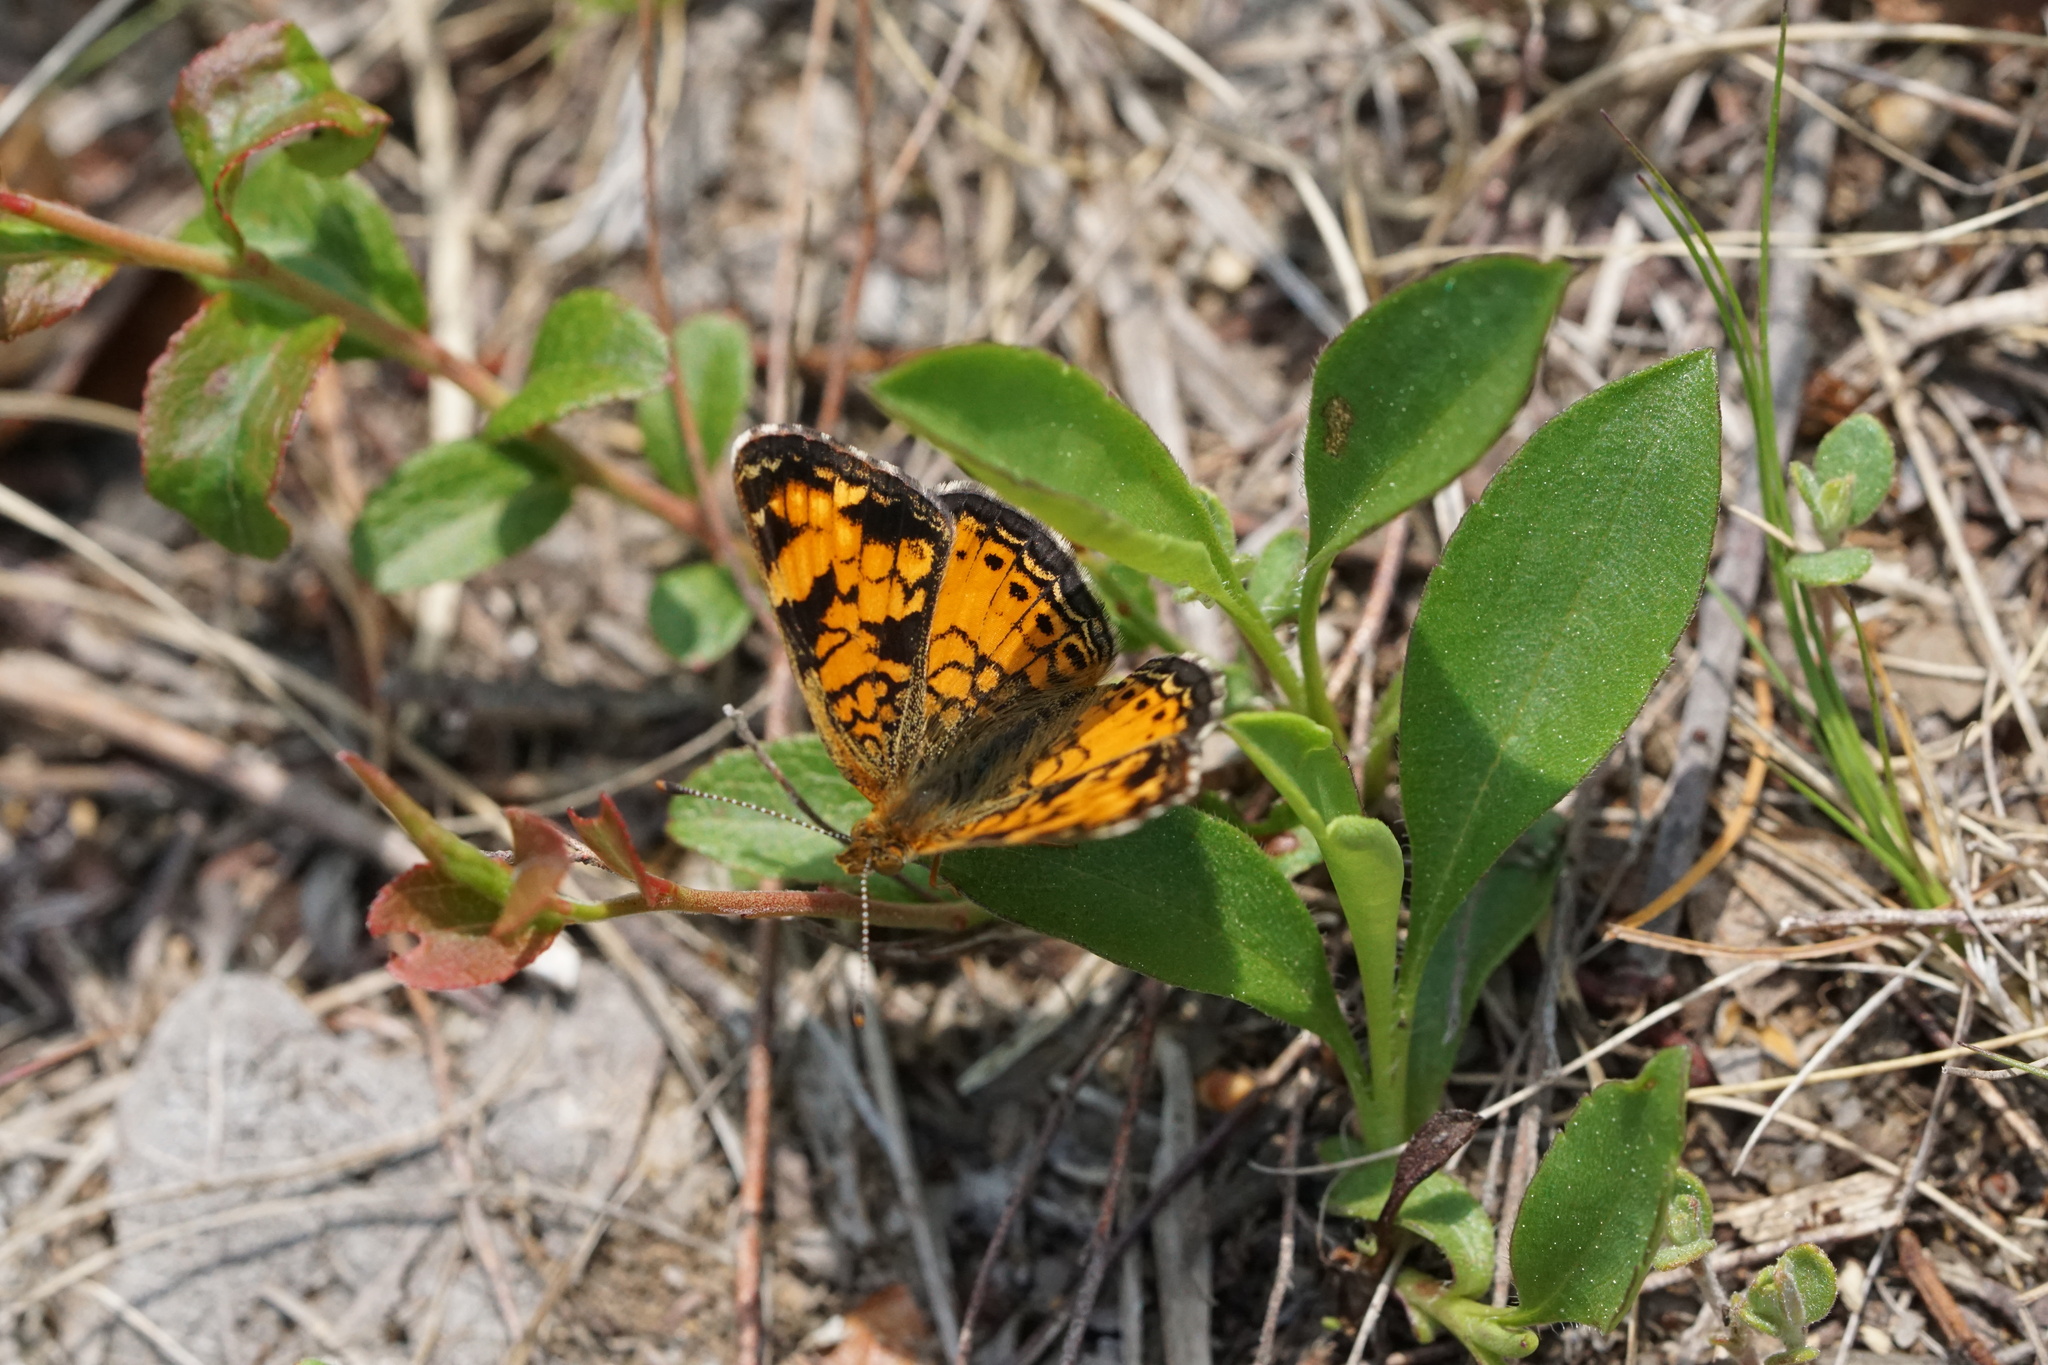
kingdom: Animalia
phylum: Arthropoda
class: Insecta
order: Lepidoptera
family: Nymphalidae
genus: Phyciodes
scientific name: Phyciodes tharos
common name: Pearl crescent
